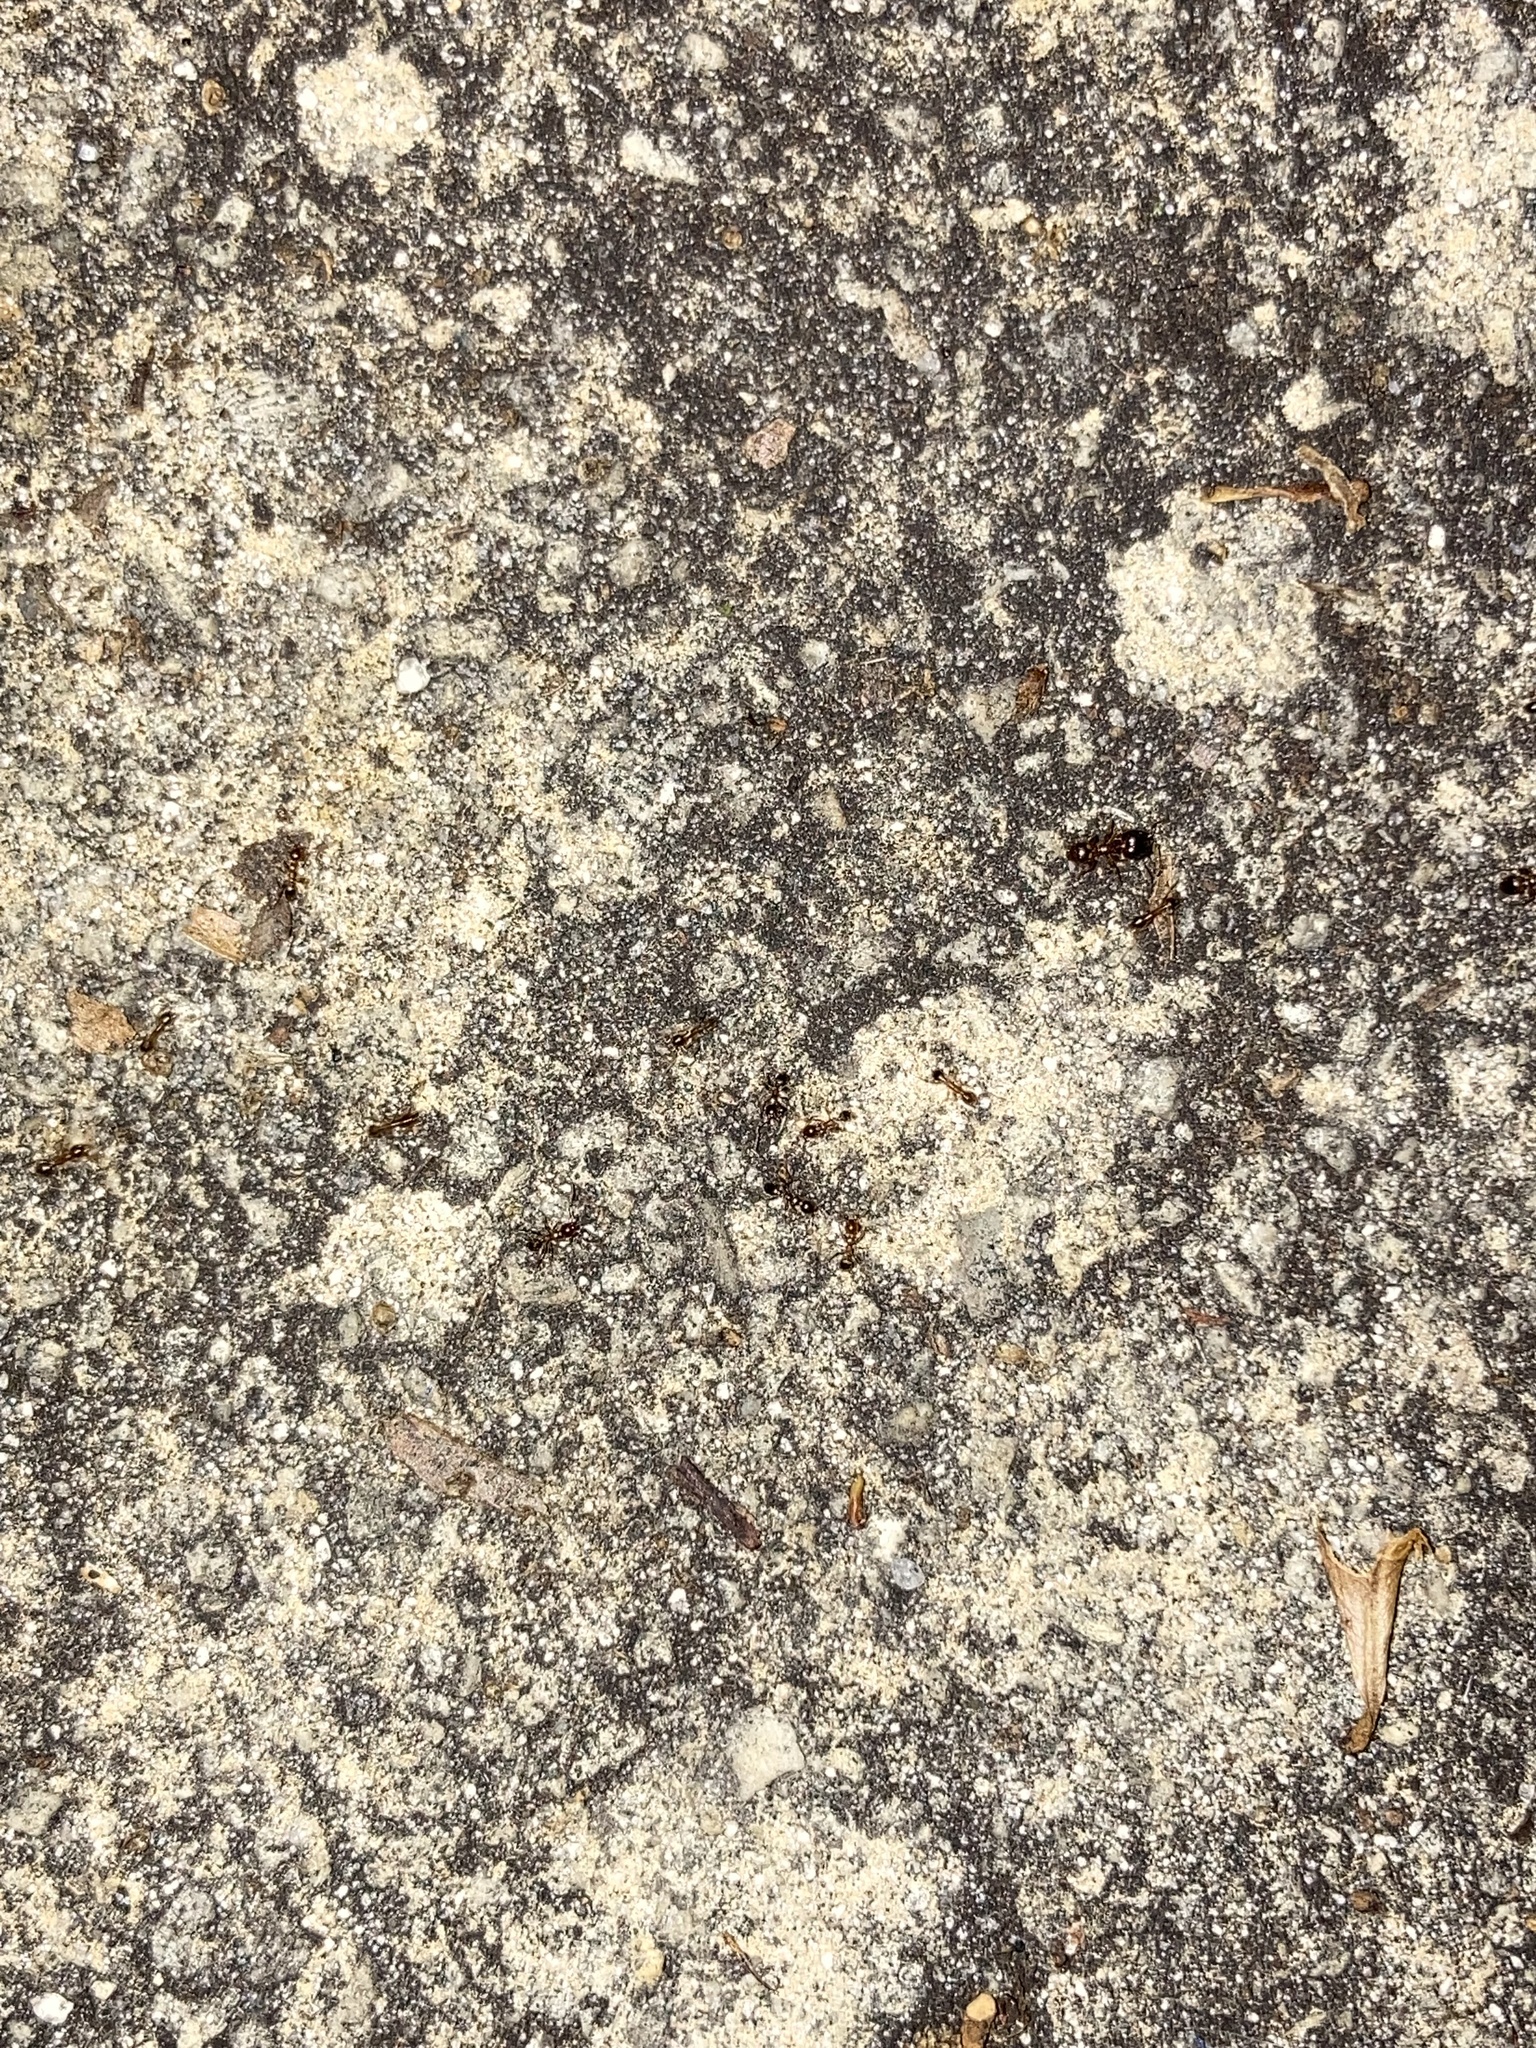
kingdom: Animalia
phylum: Arthropoda
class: Insecta
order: Hymenoptera
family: Formicidae
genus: Pheidole
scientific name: Pheidole megacephala
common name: Bigheaded ant
